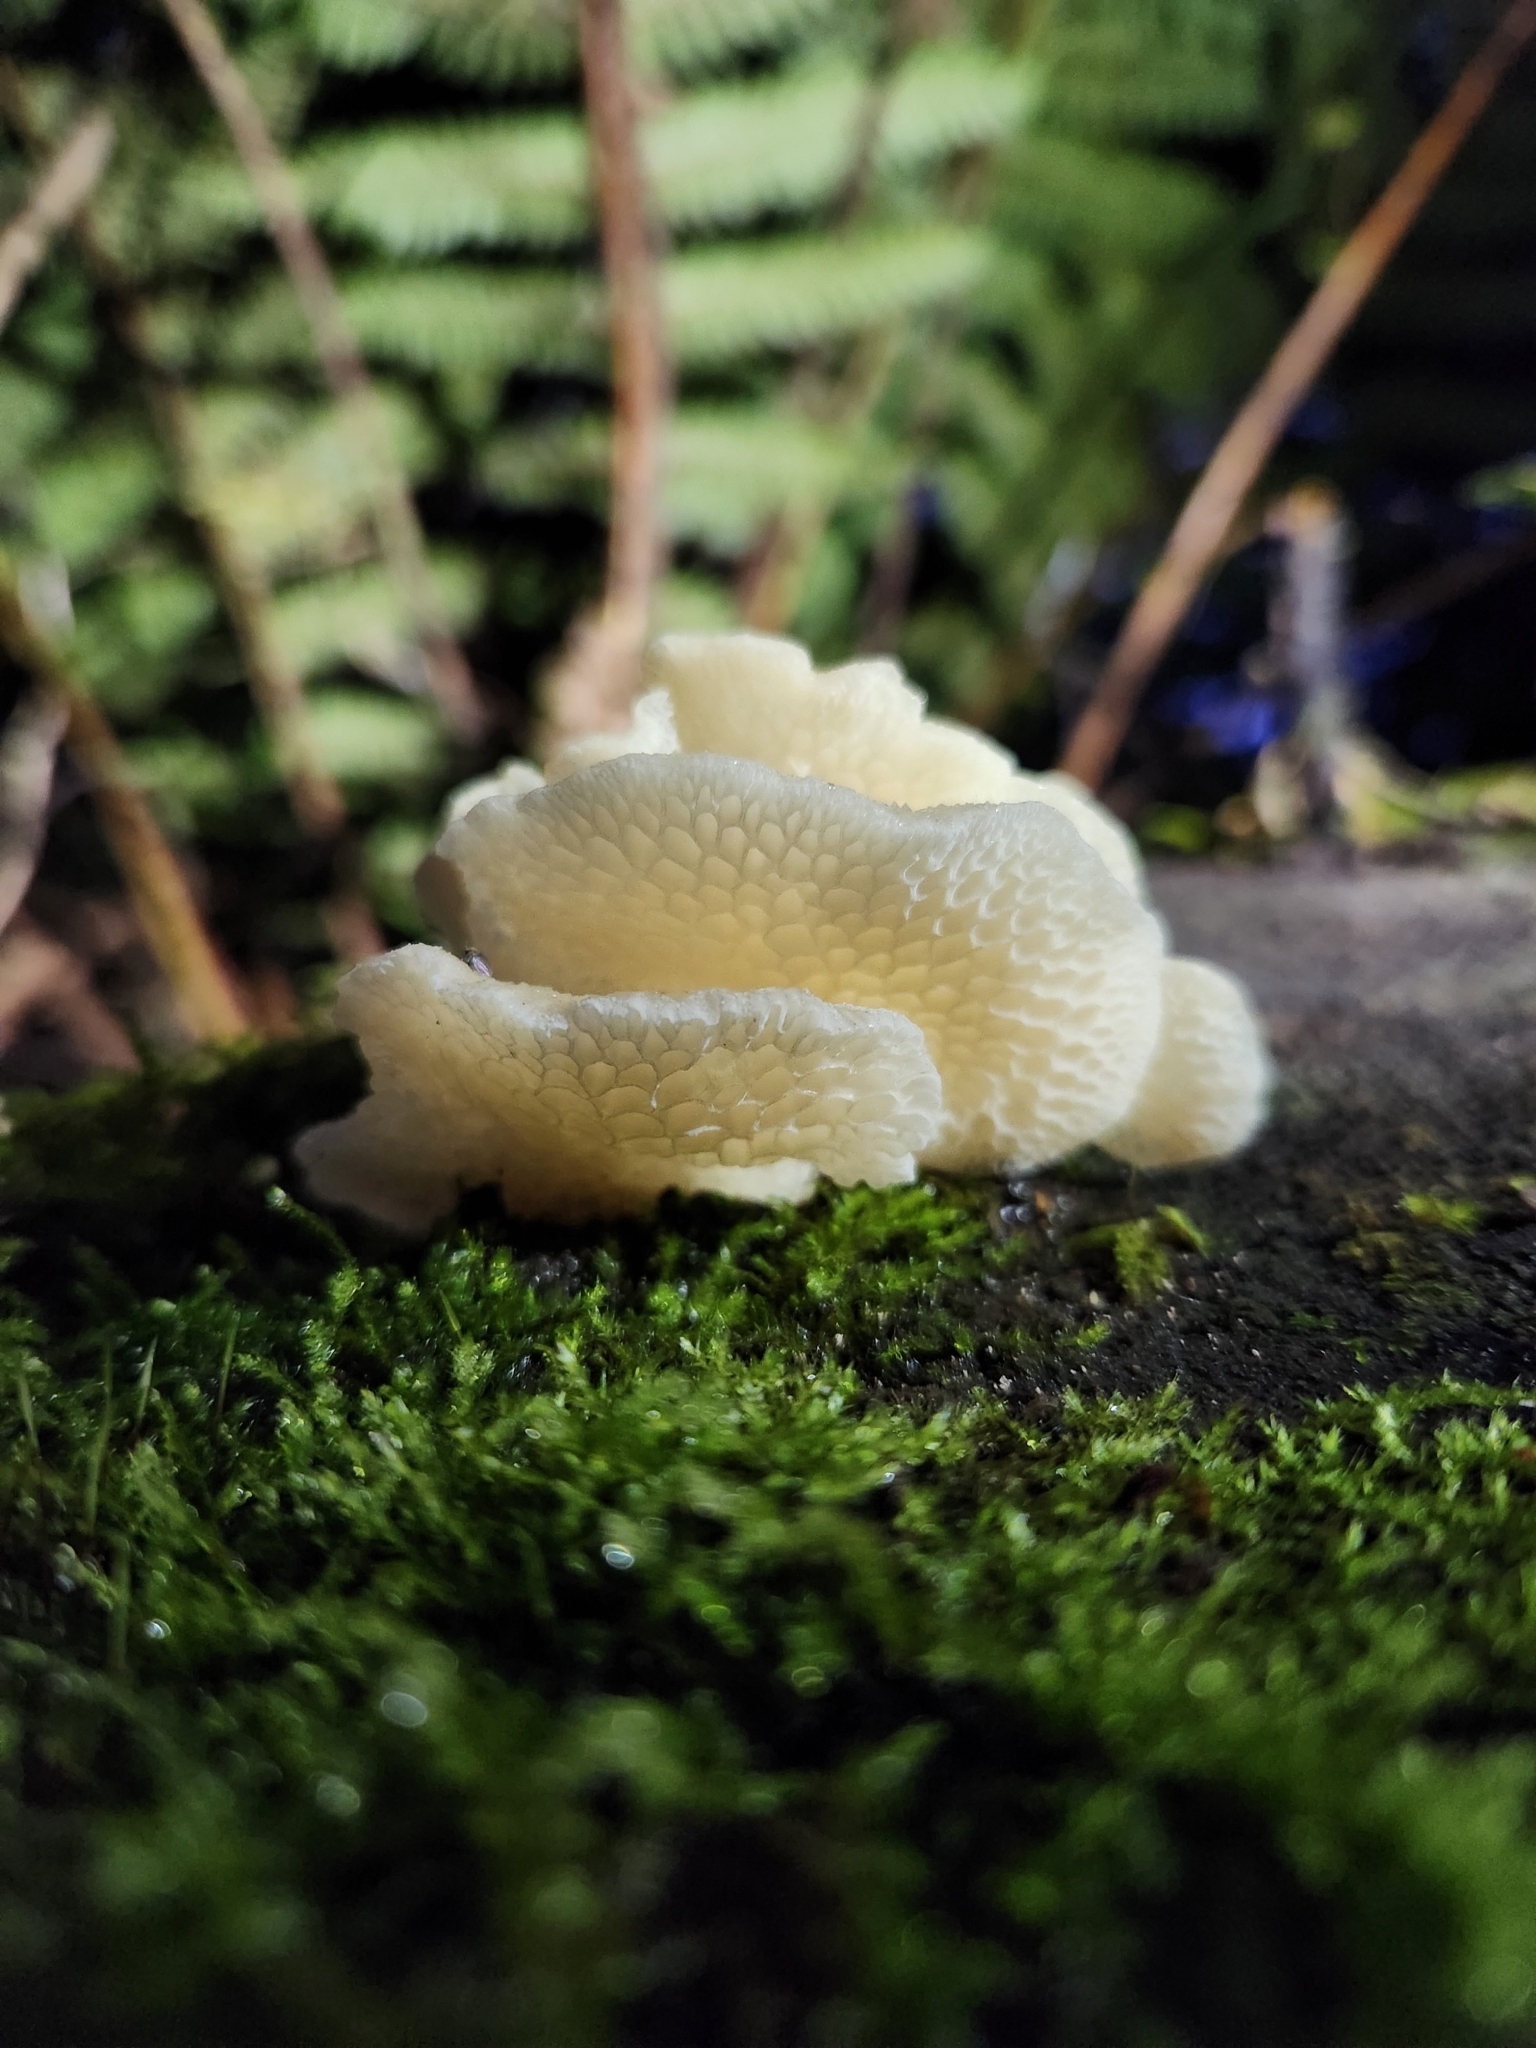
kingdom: Fungi
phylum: Basidiomycota
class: Agaricomycetes
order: Agaricales
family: Mycenaceae
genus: Favolaschia
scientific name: Favolaschia pustulosa
